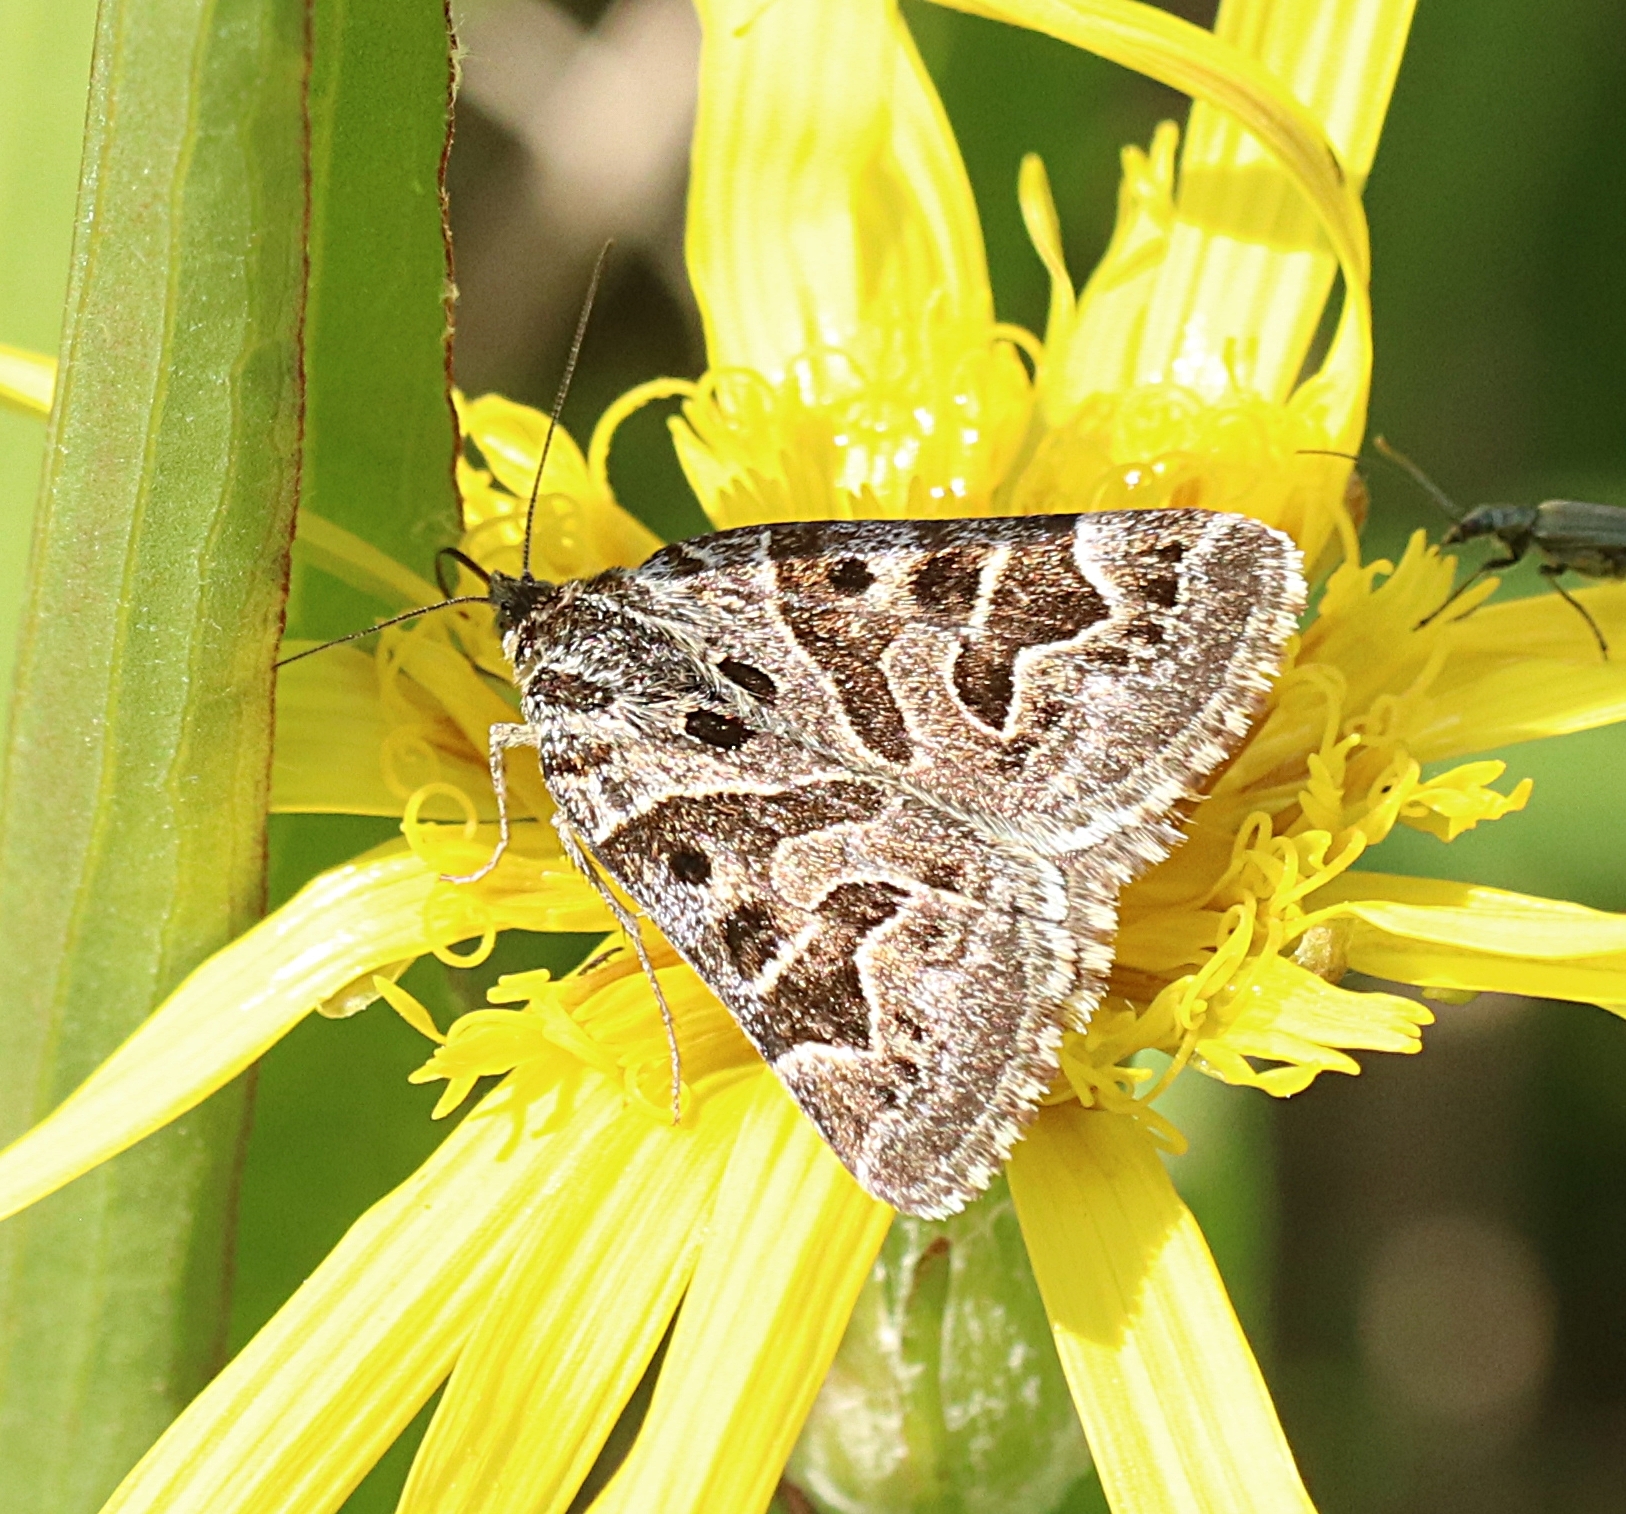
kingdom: Animalia
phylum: Arthropoda
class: Insecta
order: Lepidoptera
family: Erebidae
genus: Callistege
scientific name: Callistege mi
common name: Mother shipton
